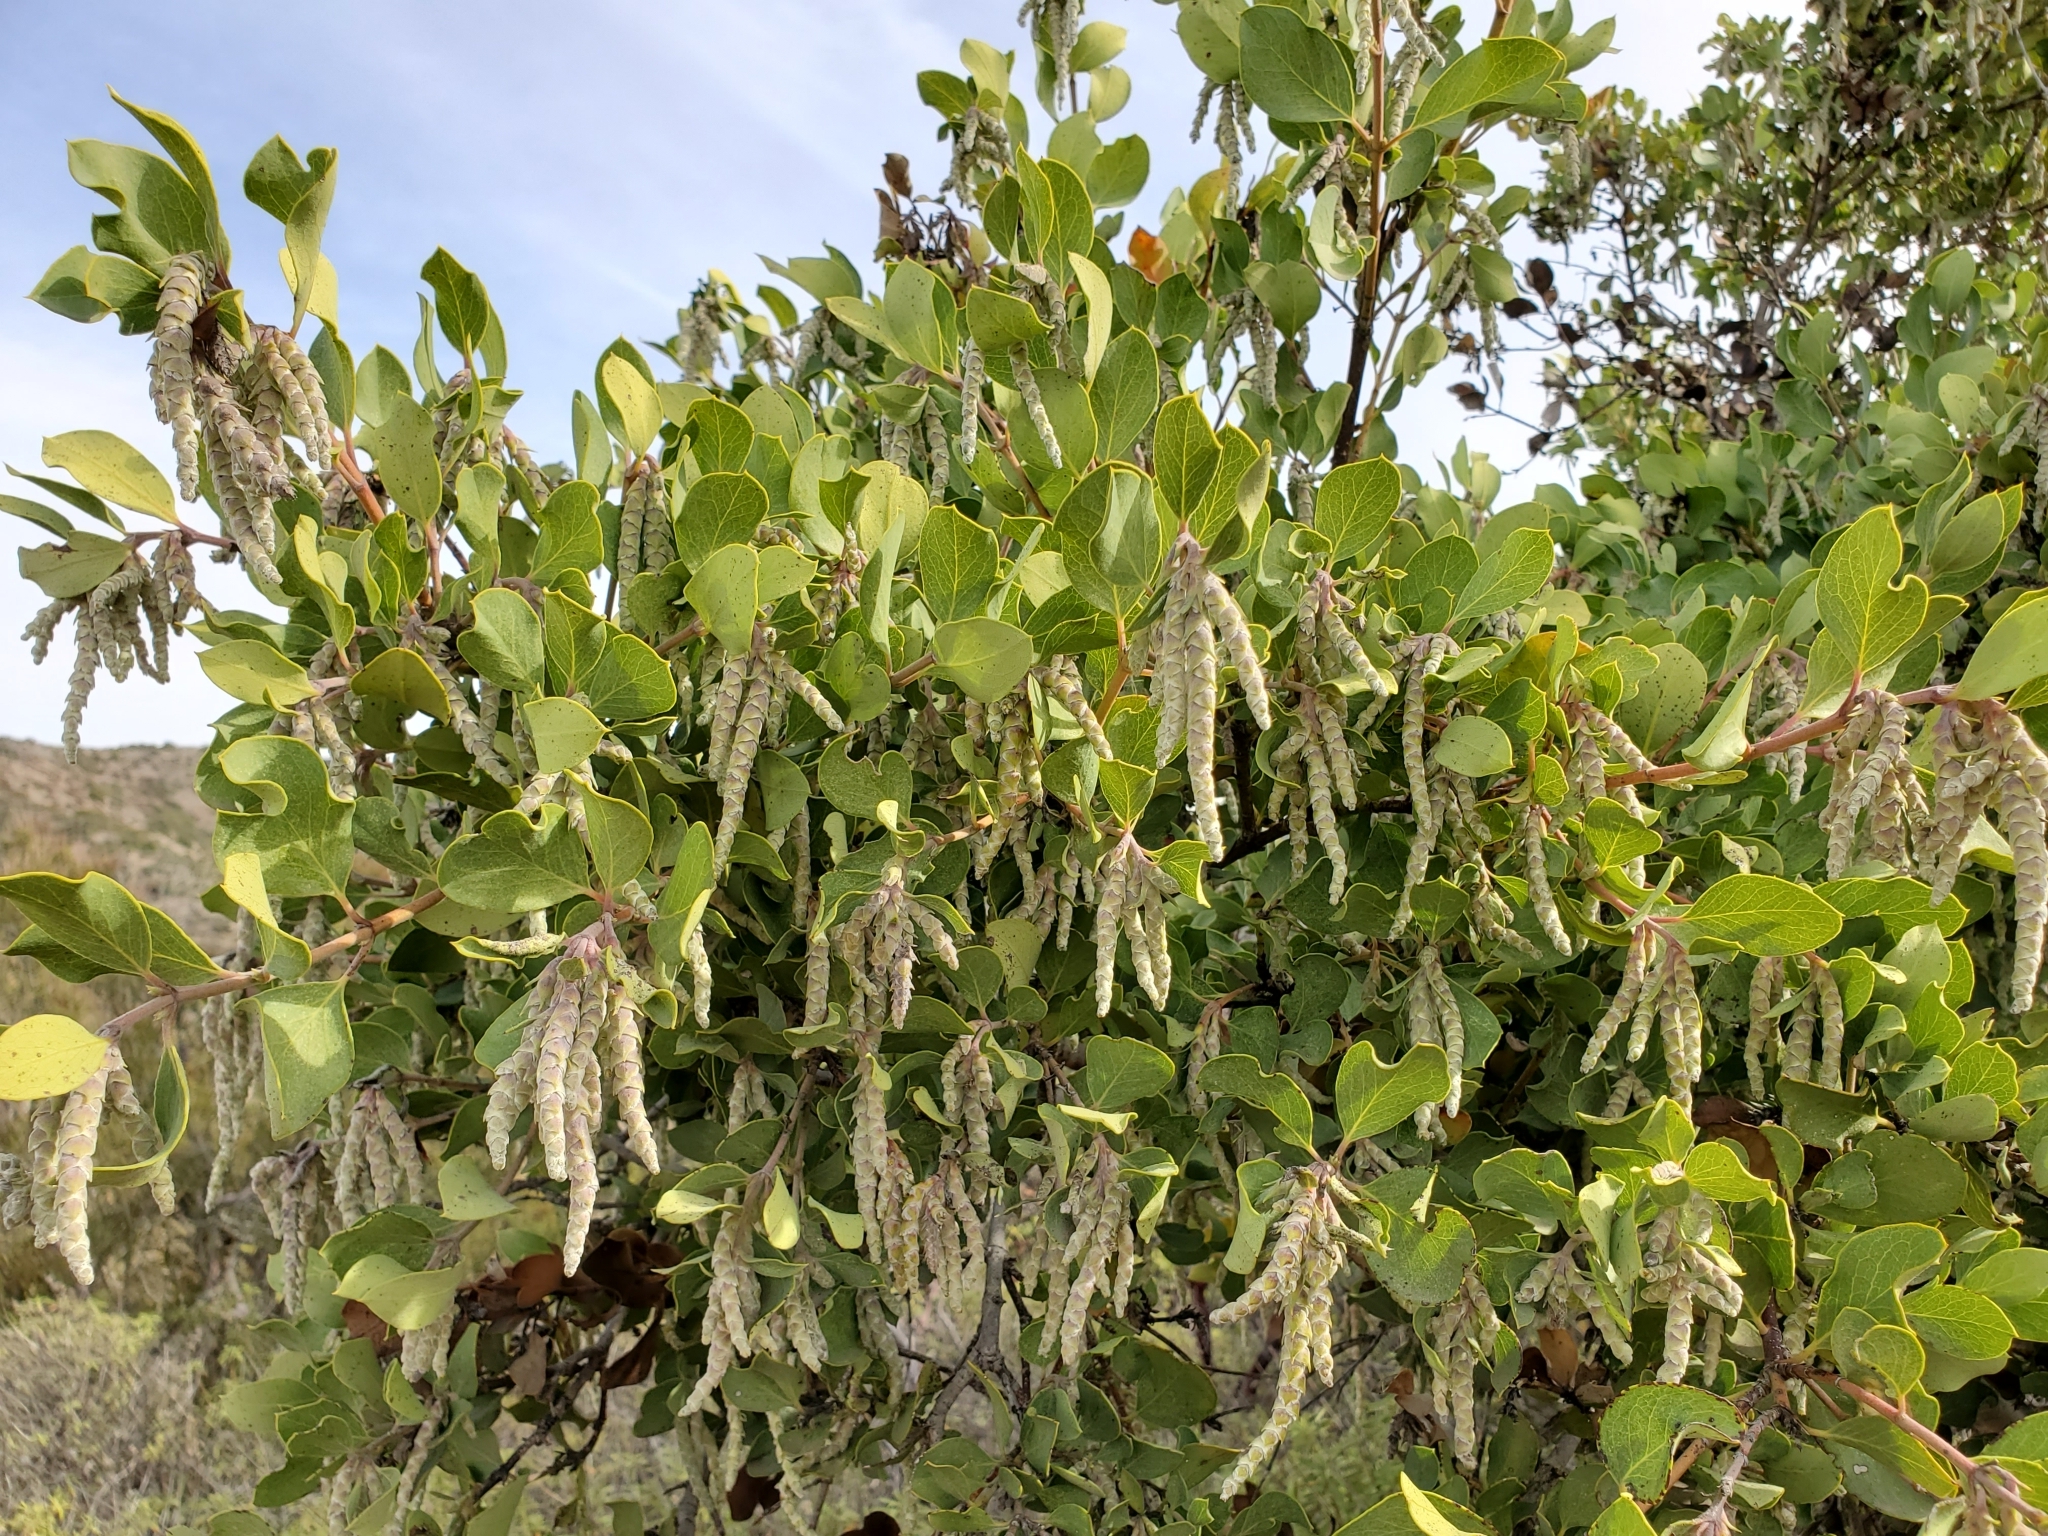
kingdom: Plantae
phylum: Tracheophyta
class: Magnoliopsida
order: Garryales
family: Garryaceae
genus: Garrya
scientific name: Garrya flavescens
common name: Ashy silk-tassel
